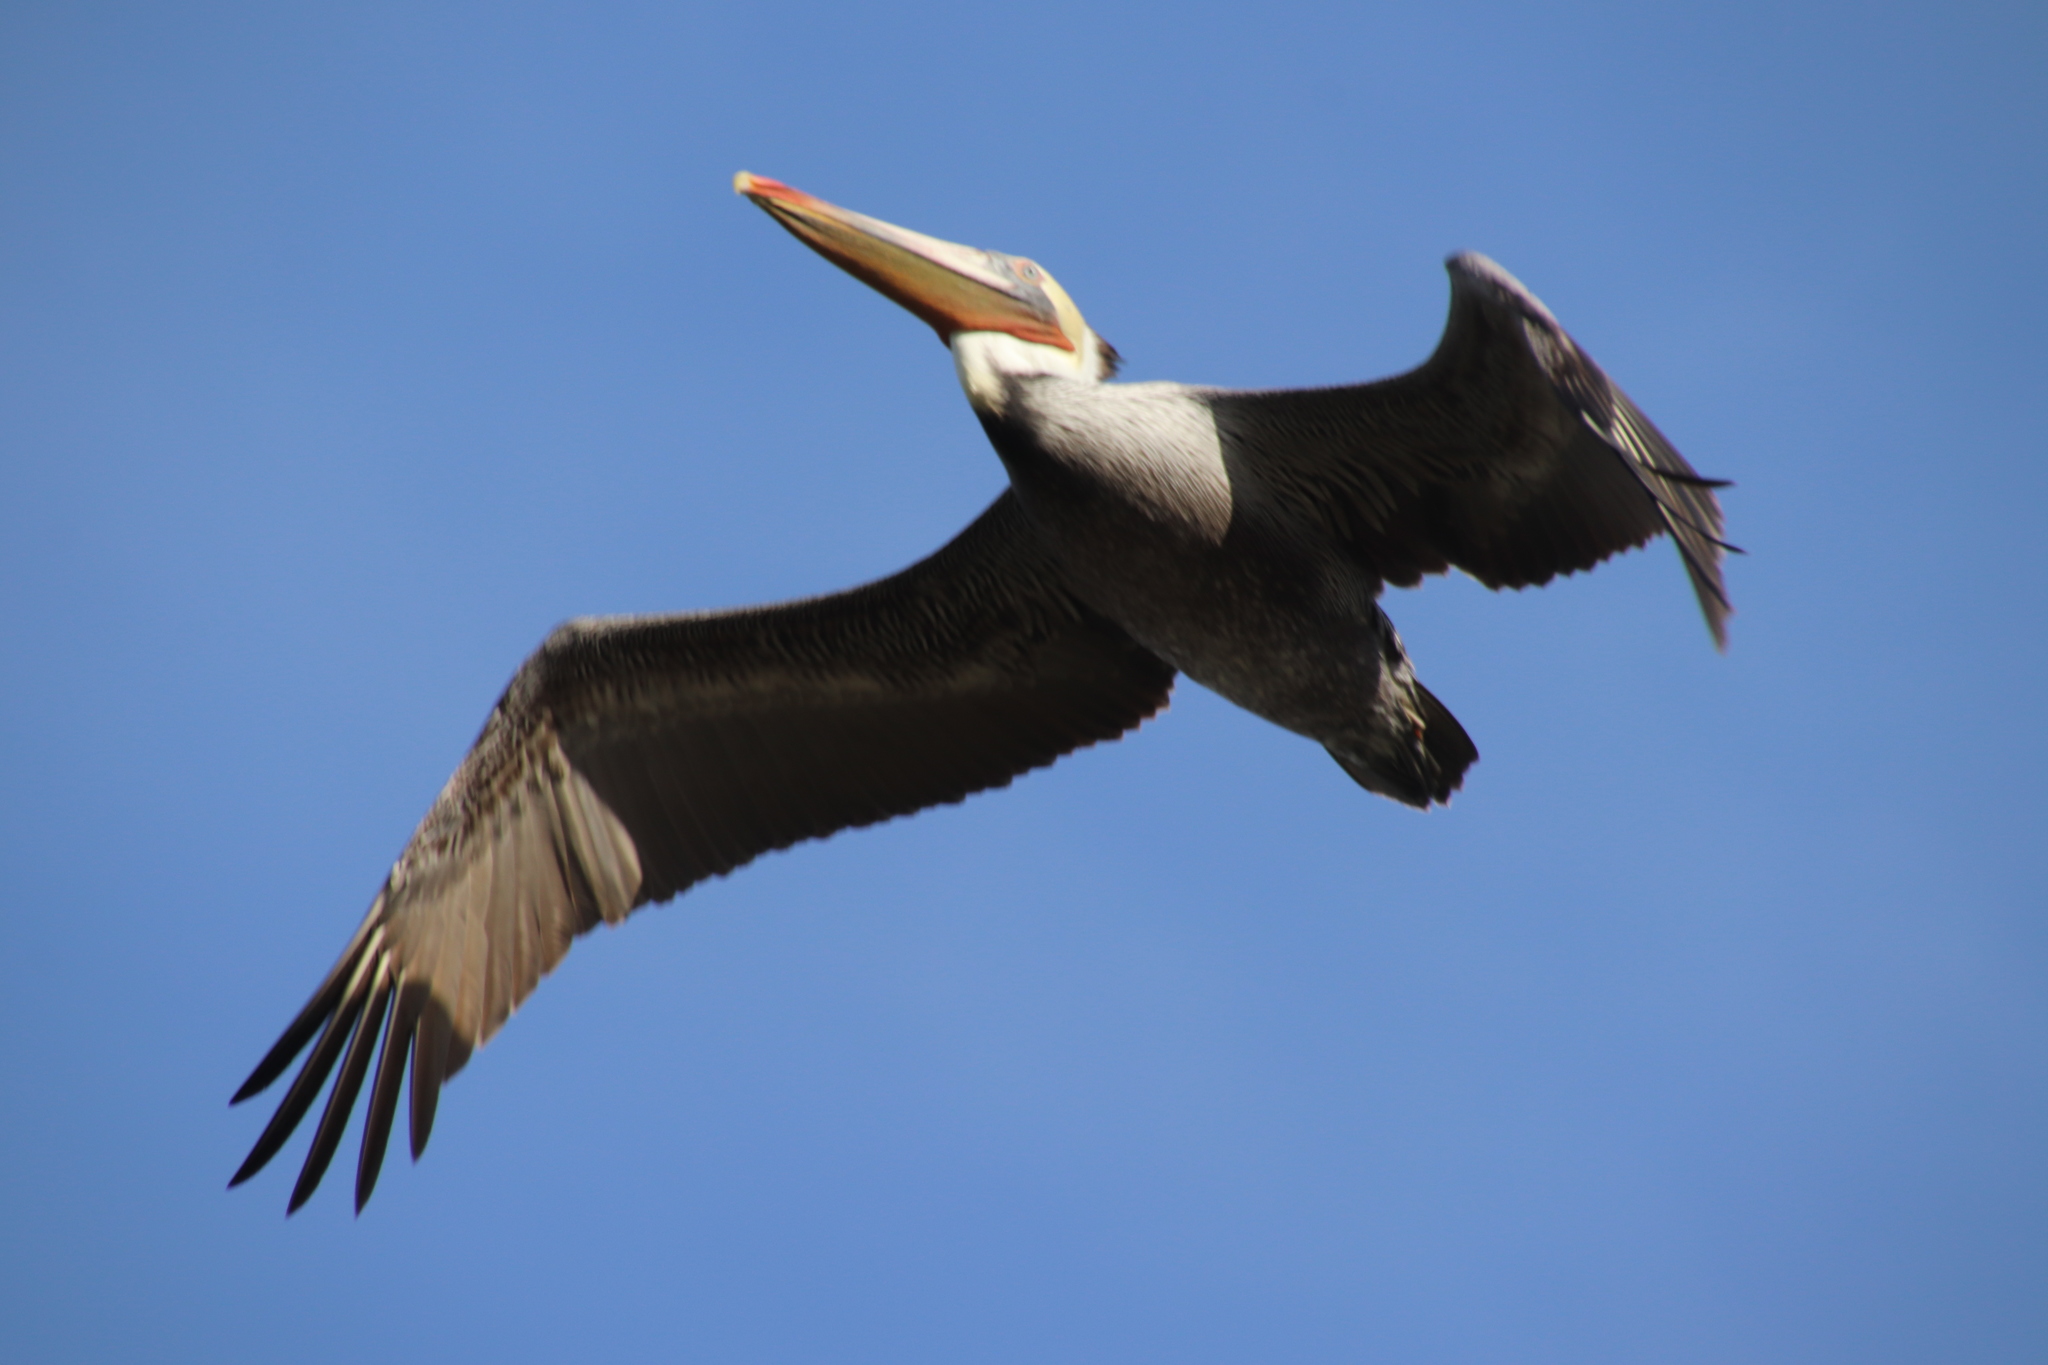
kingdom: Animalia
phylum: Chordata
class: Aves
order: Pelecaniformes
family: Pelecanidae
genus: Pelecanus
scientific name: Pelecanus occidentalis
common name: Brown pelican
